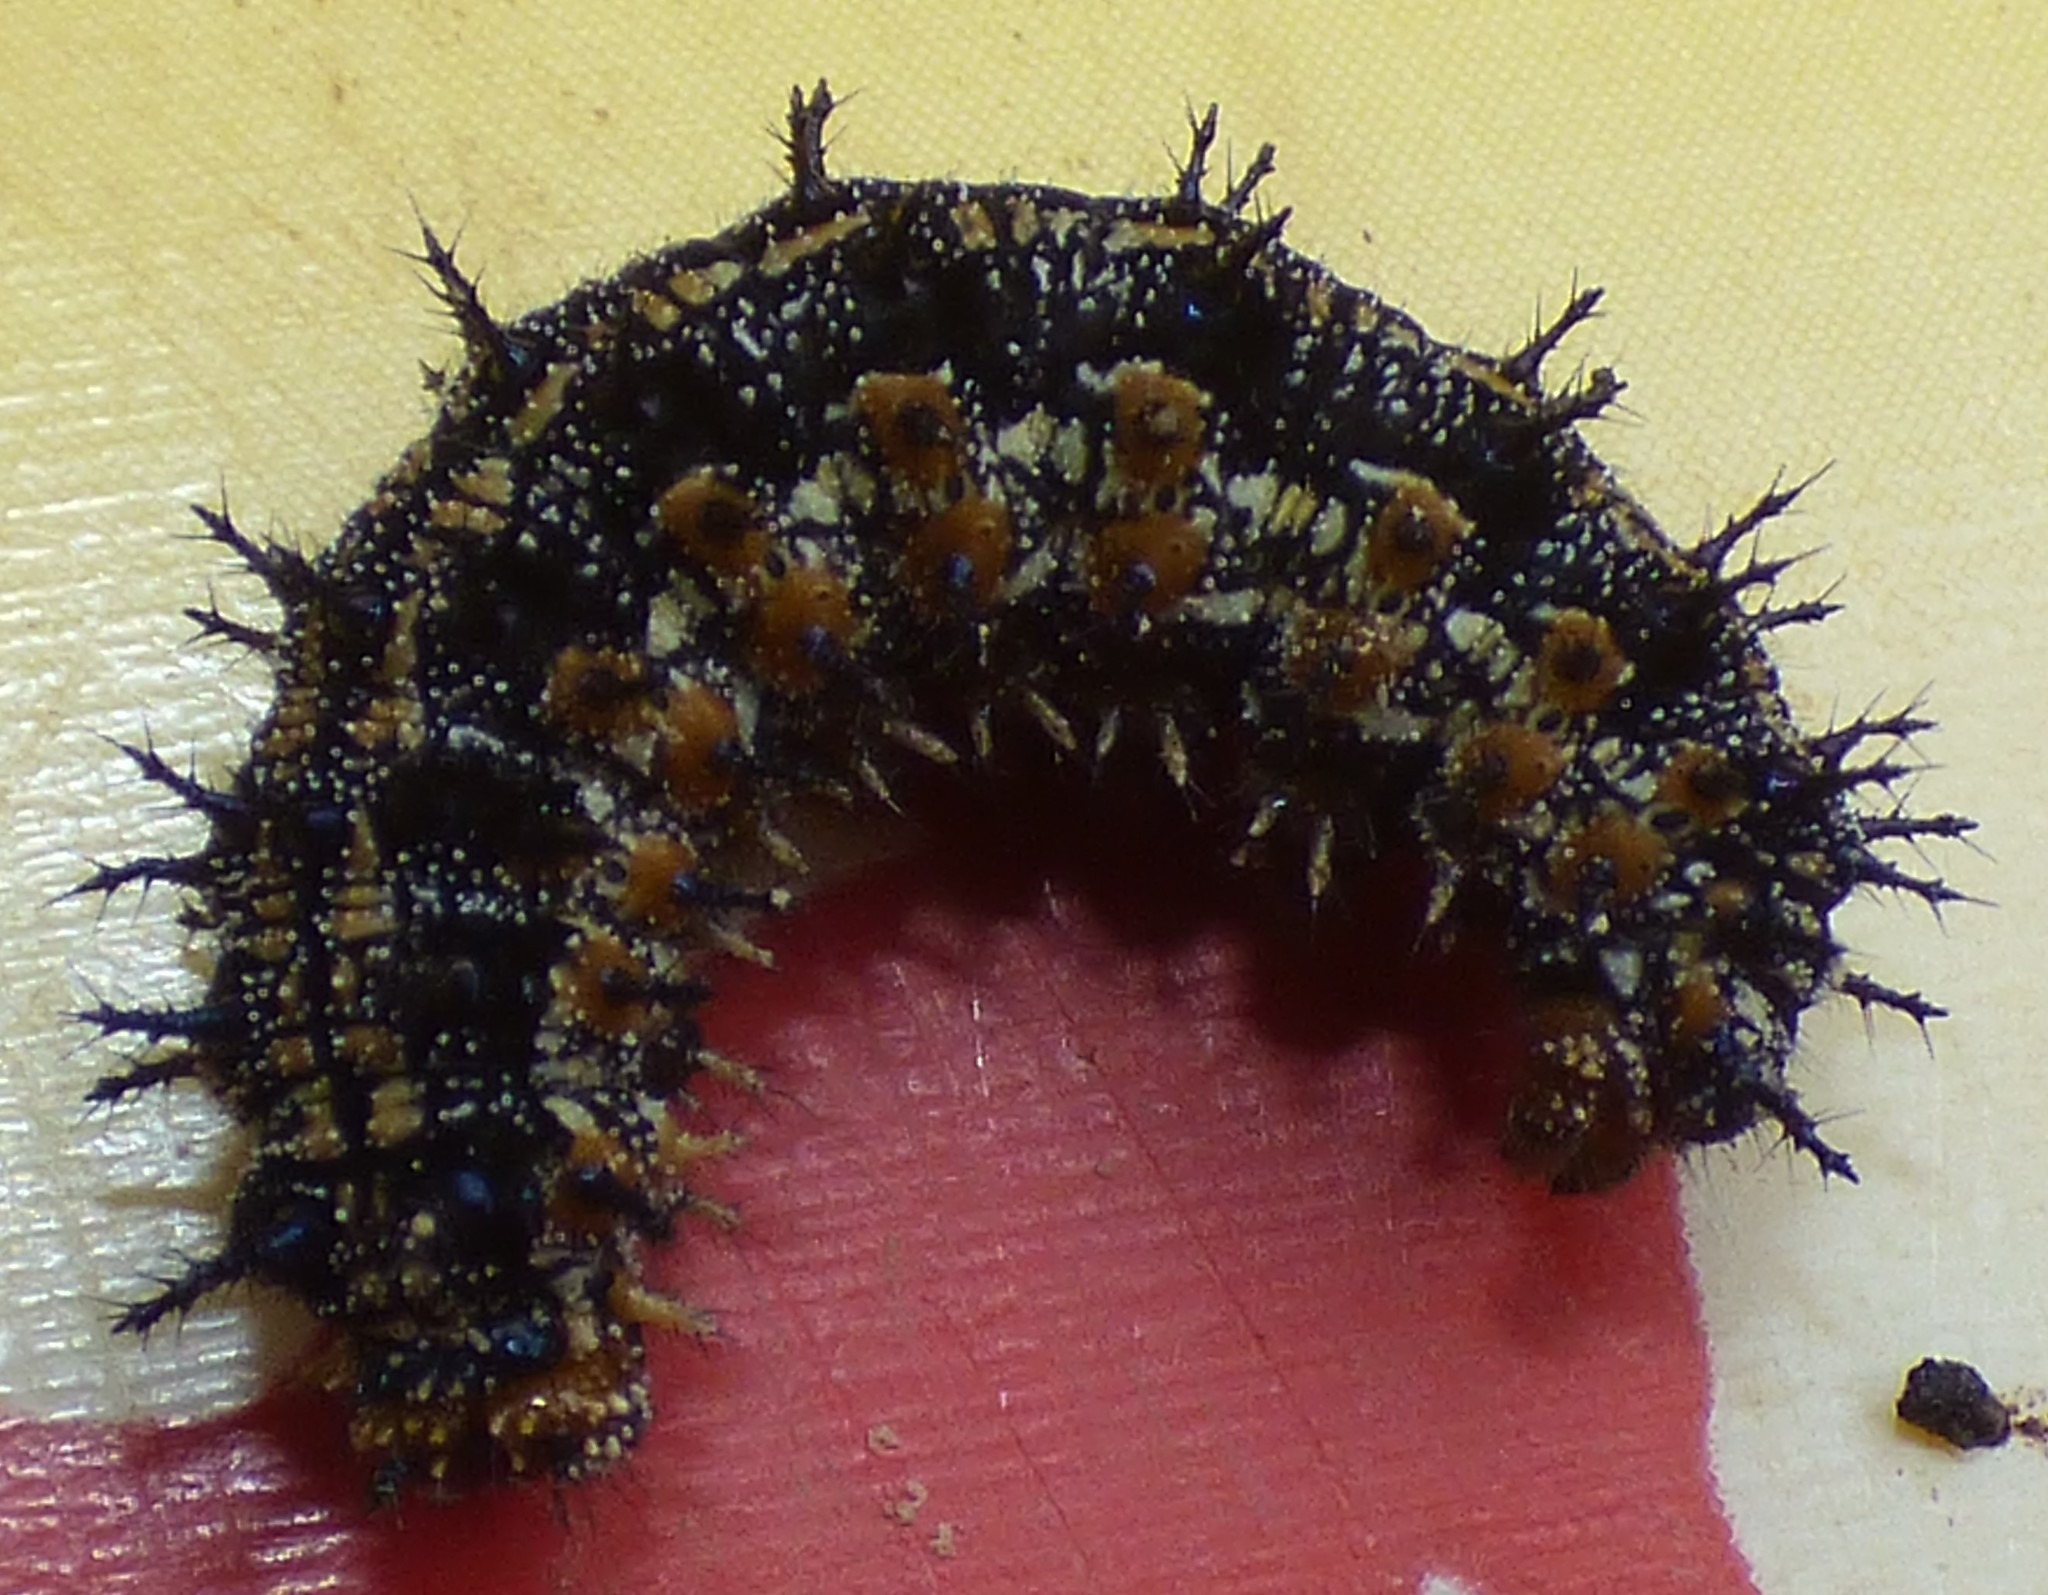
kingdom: Animalia
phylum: Arthropoda
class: Insecta
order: Lepidoptera
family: Nymphalidae
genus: Junonia
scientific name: Junonia coenia
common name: Common buckeye
